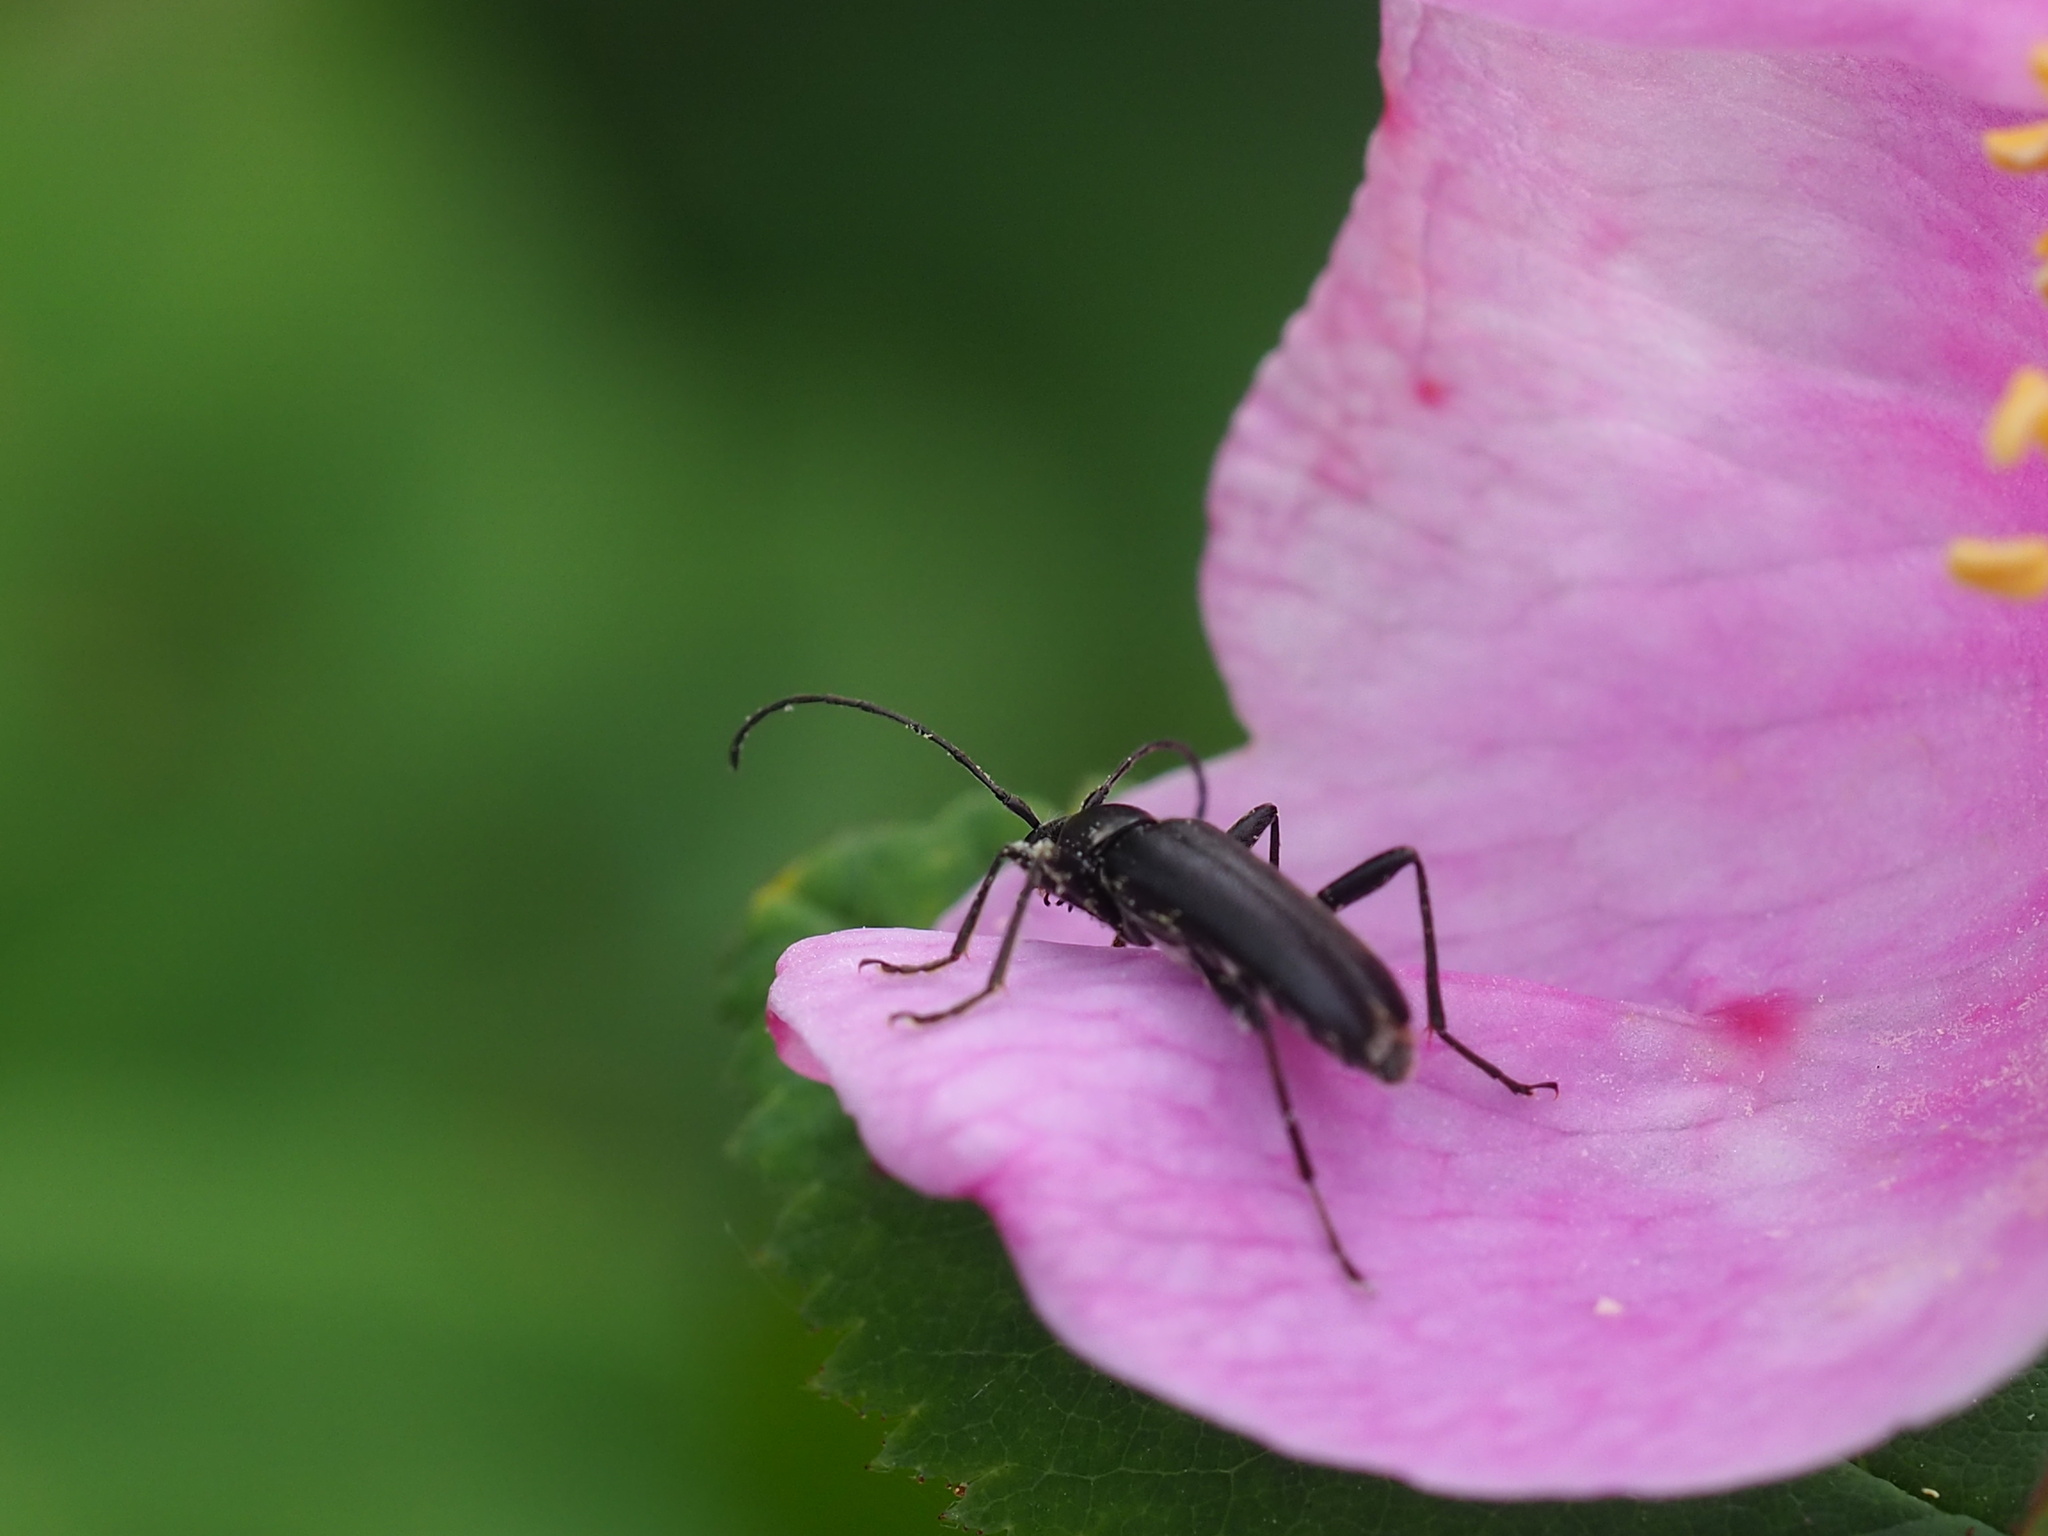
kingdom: Animalia
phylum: Arthropoda
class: Insecta
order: Coleoptera
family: Cerambycidae
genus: Grammoptera
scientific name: Grammoptera subargentata
